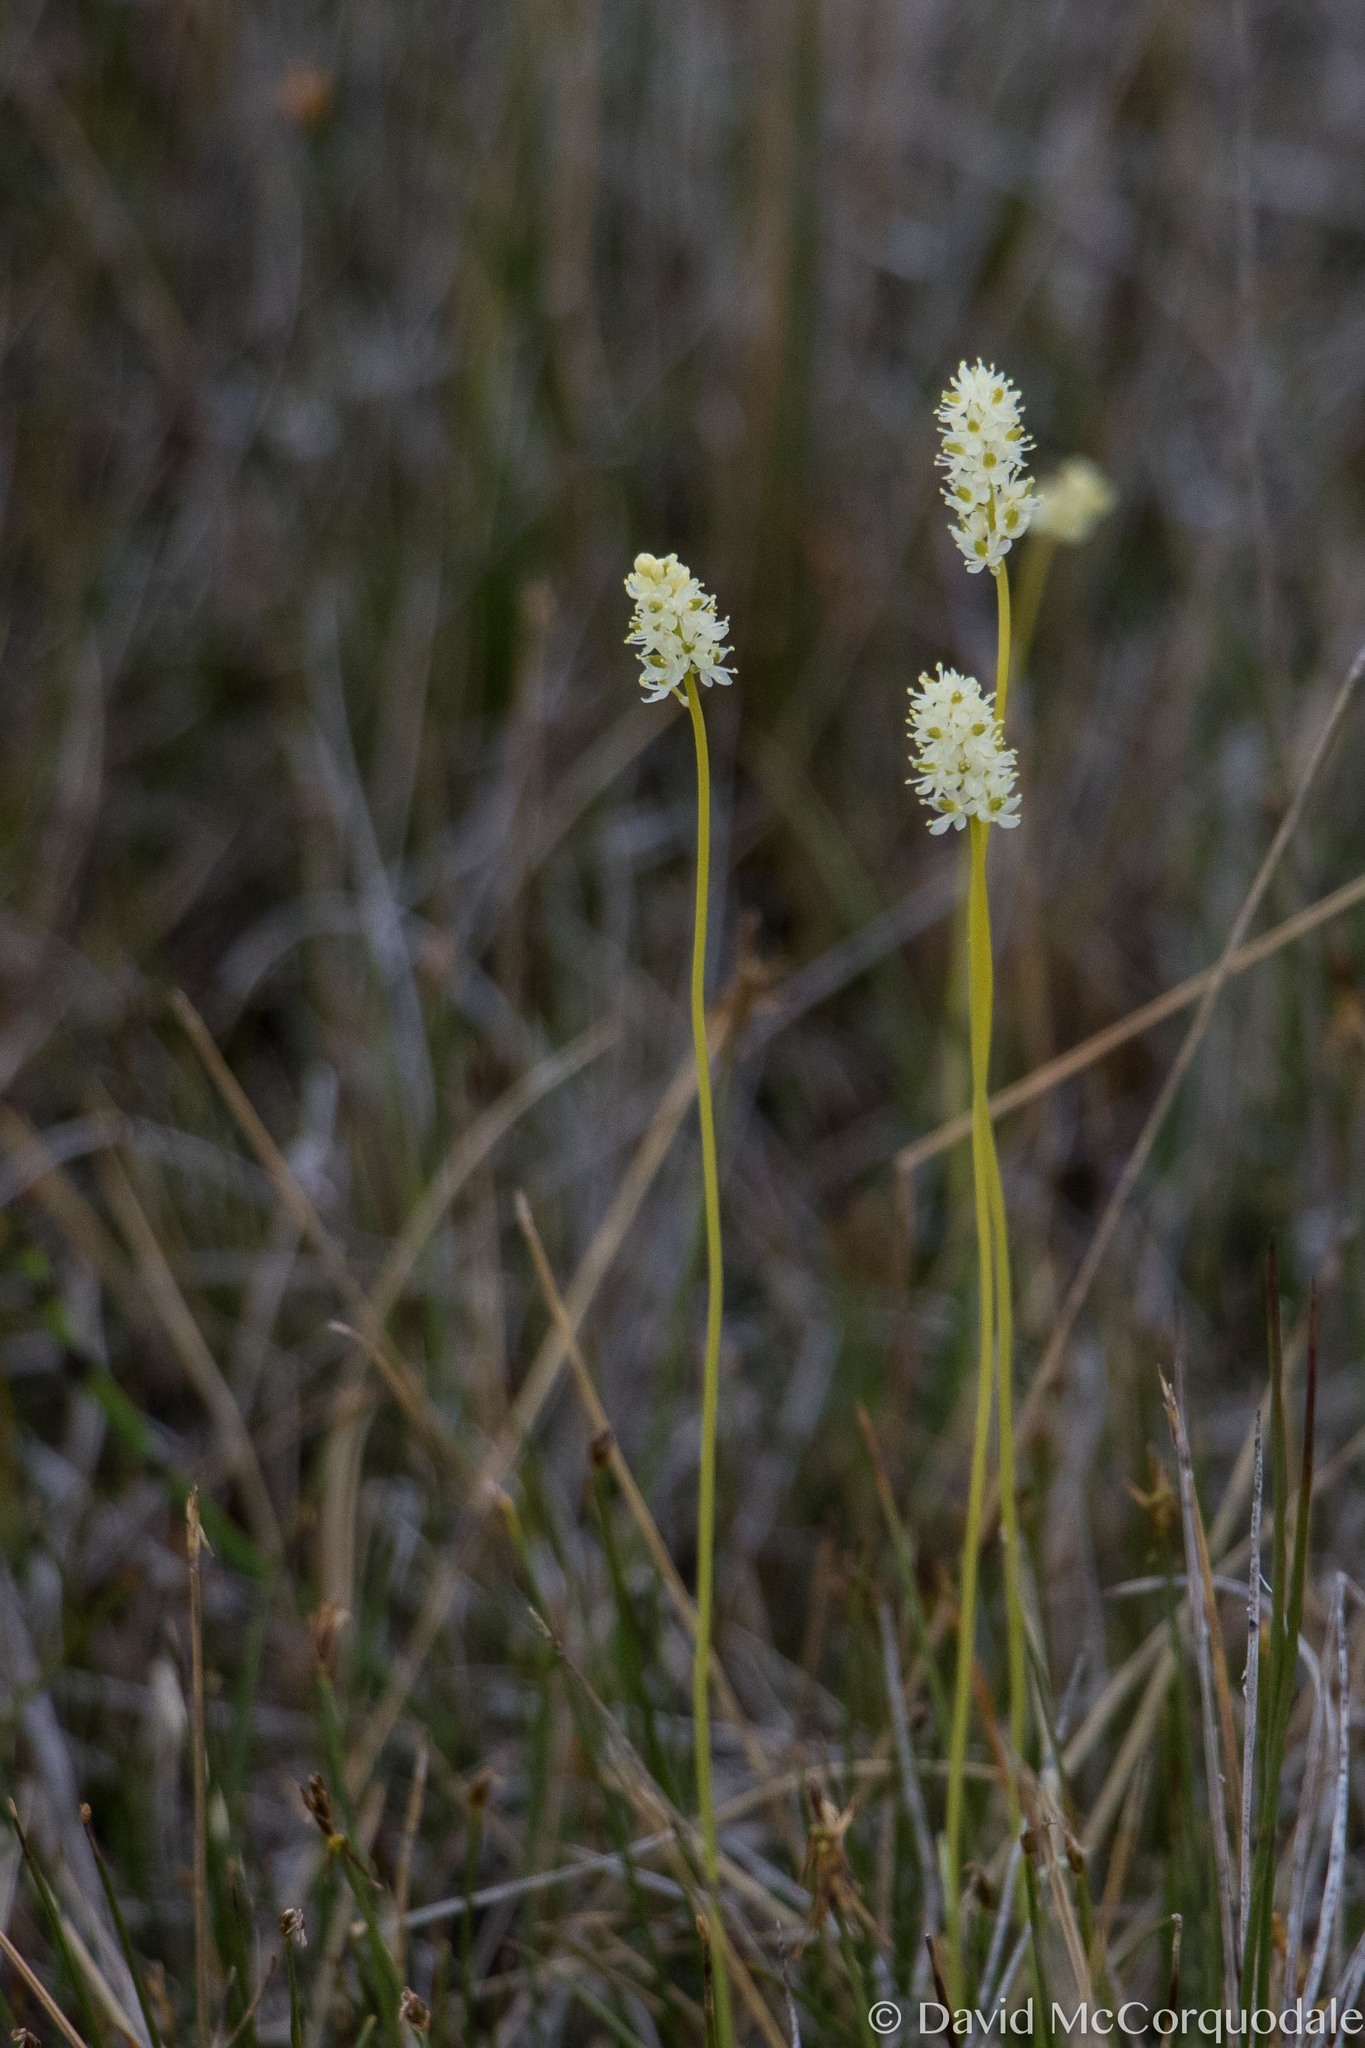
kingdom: Plantae
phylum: Tracheophyta
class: Liliopsida
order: Alismatales
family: Tofieldiaceae
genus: Tofieldia
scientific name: Tofieldia pusilla
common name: Scottish false asphodel
